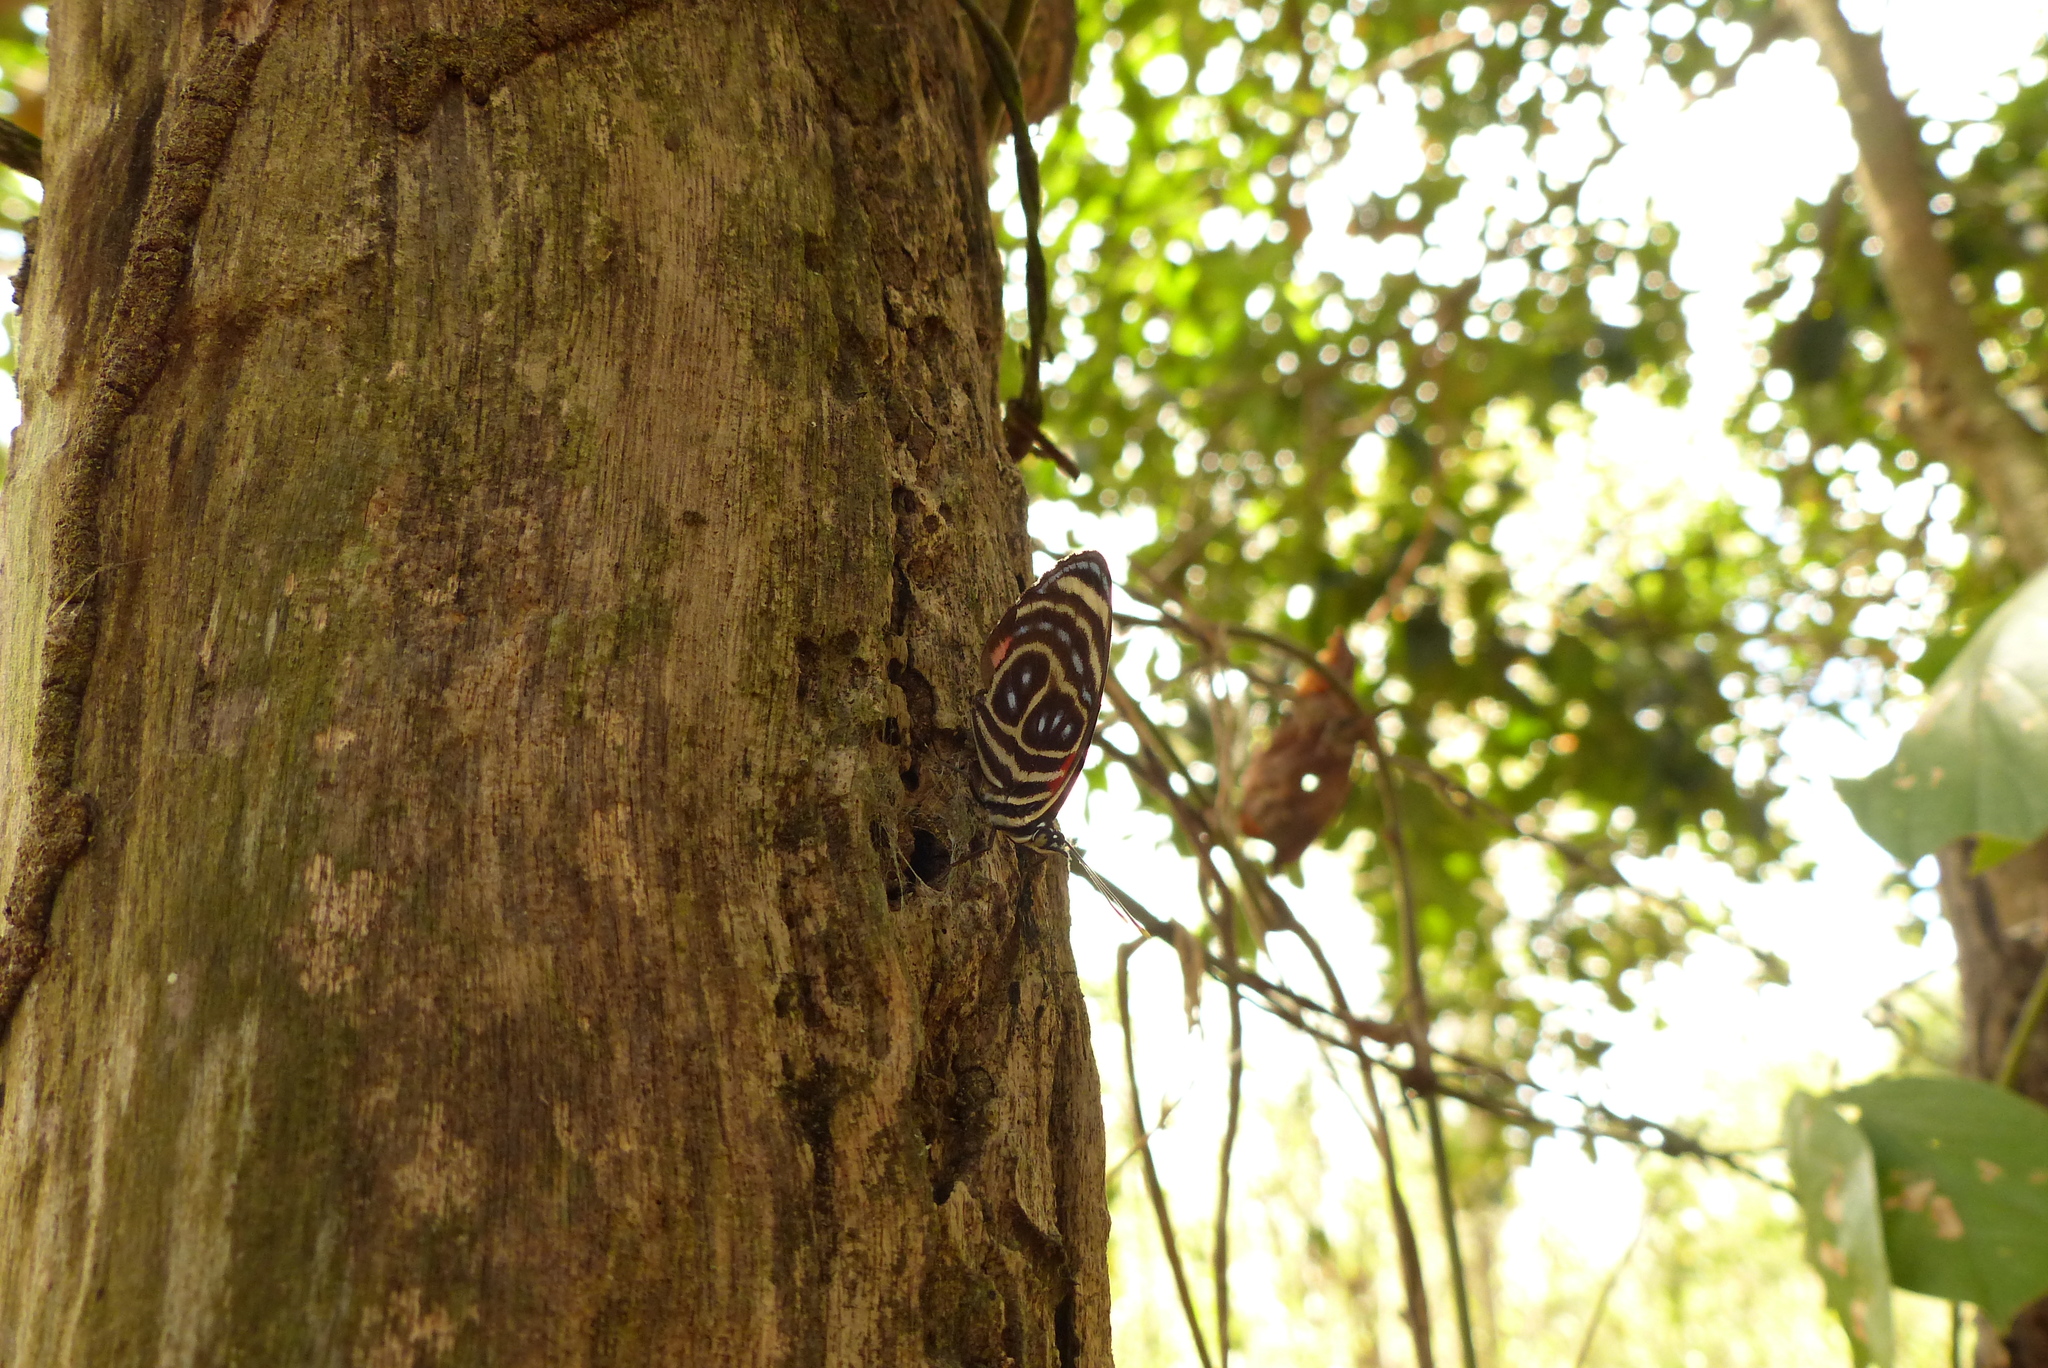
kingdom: Animalia
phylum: Arthropoda
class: Insecta
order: Lepidoptera
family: Nymphalidae
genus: Catagramma
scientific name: Catagramma pygas
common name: Godart's numberwing
